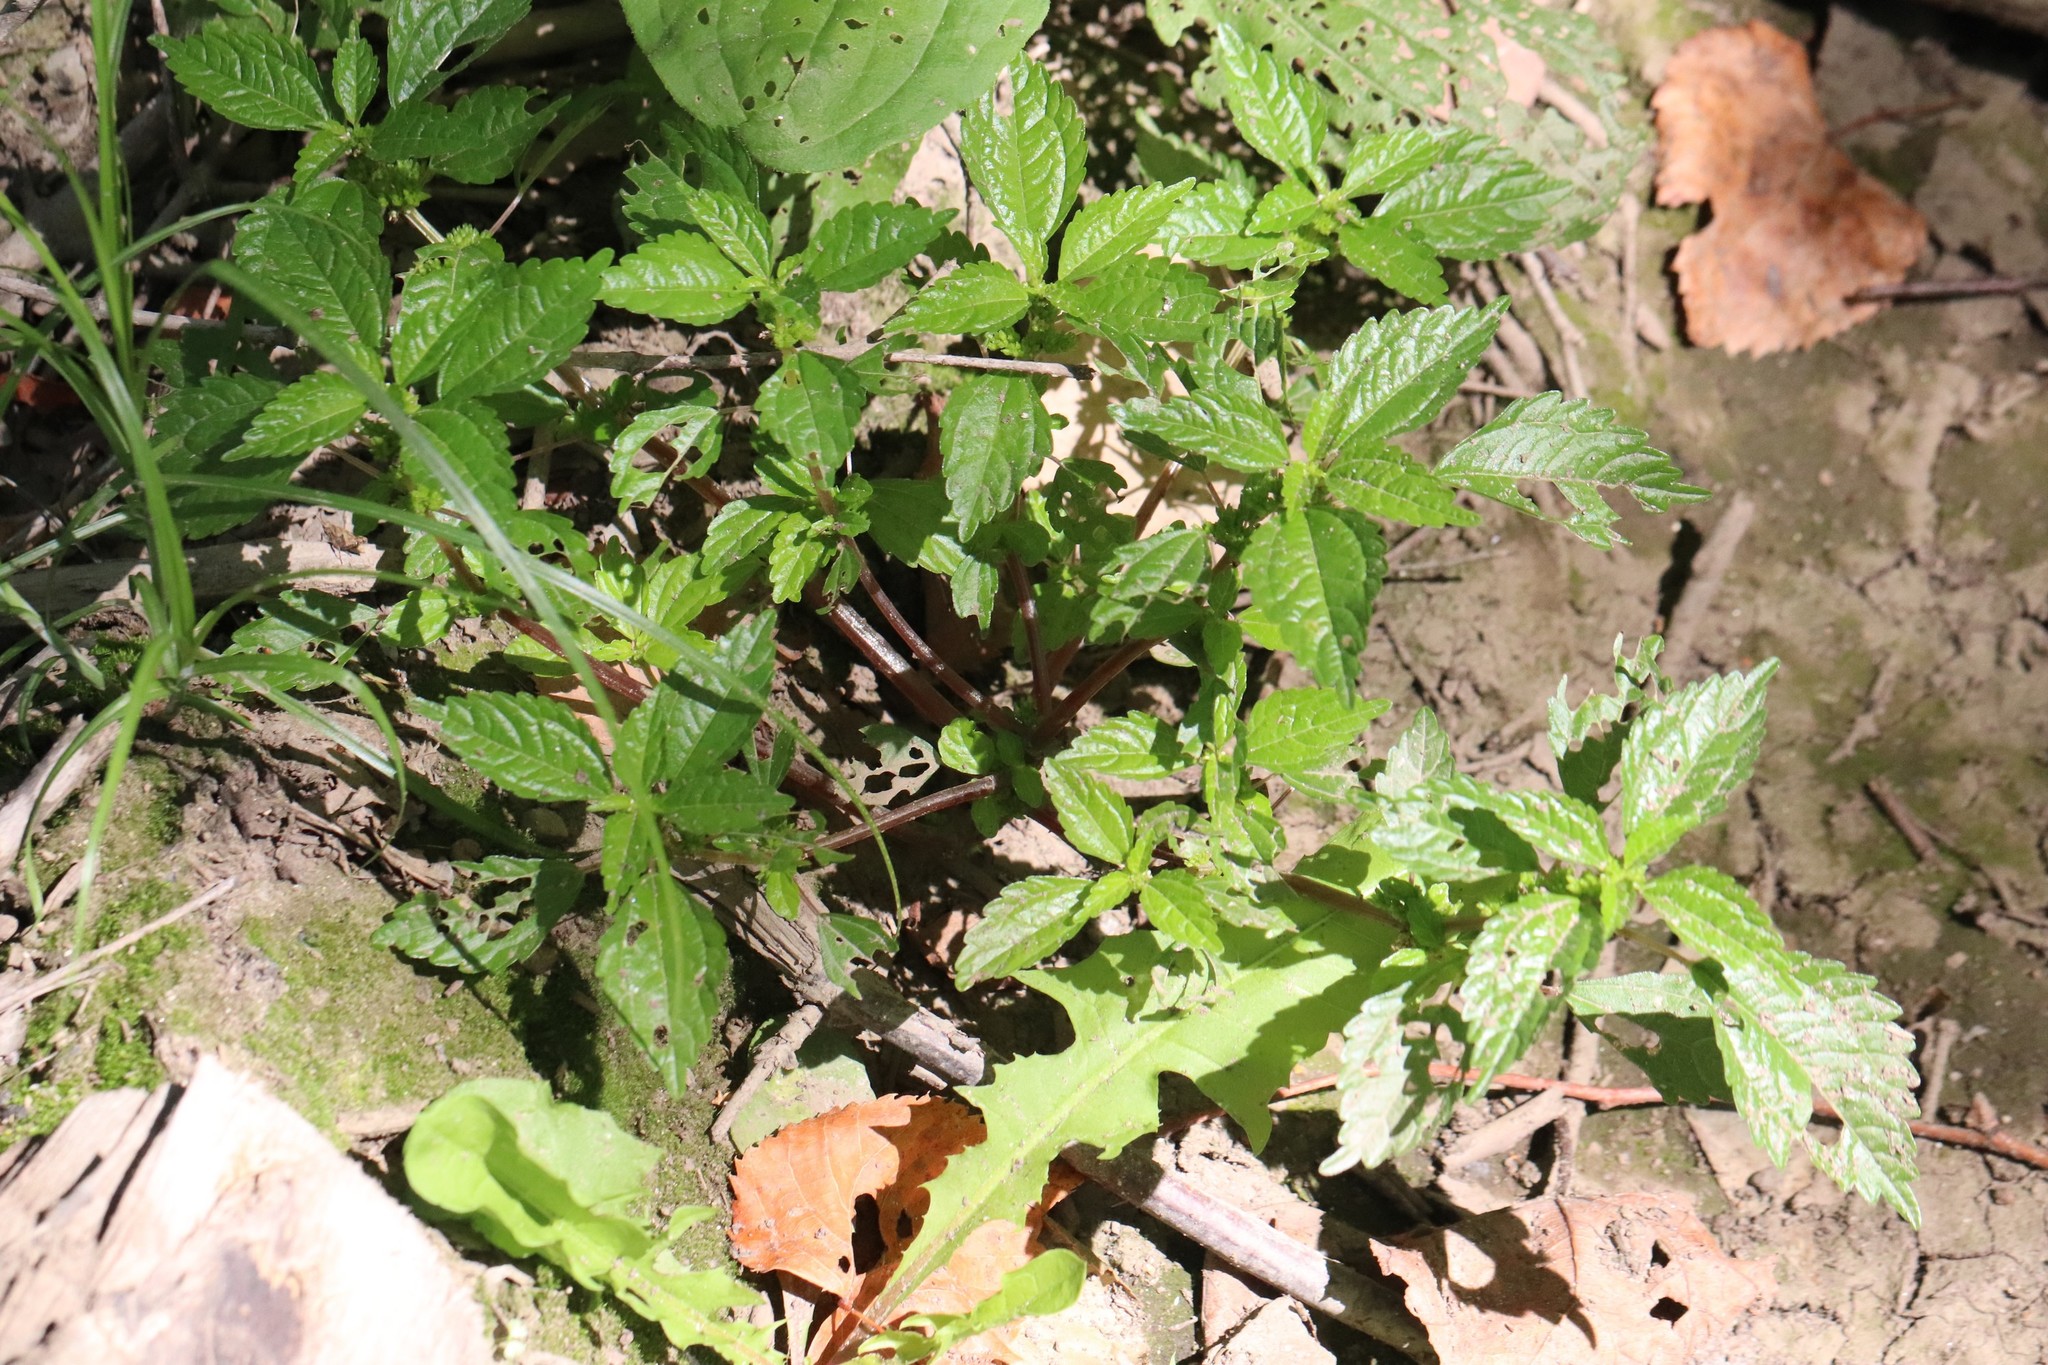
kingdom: Plantae
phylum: Tracheophyta
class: Magnoliopsida
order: Rosales
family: Urticaceae
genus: Pilea
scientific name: Pilea pumila
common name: Clearweed
